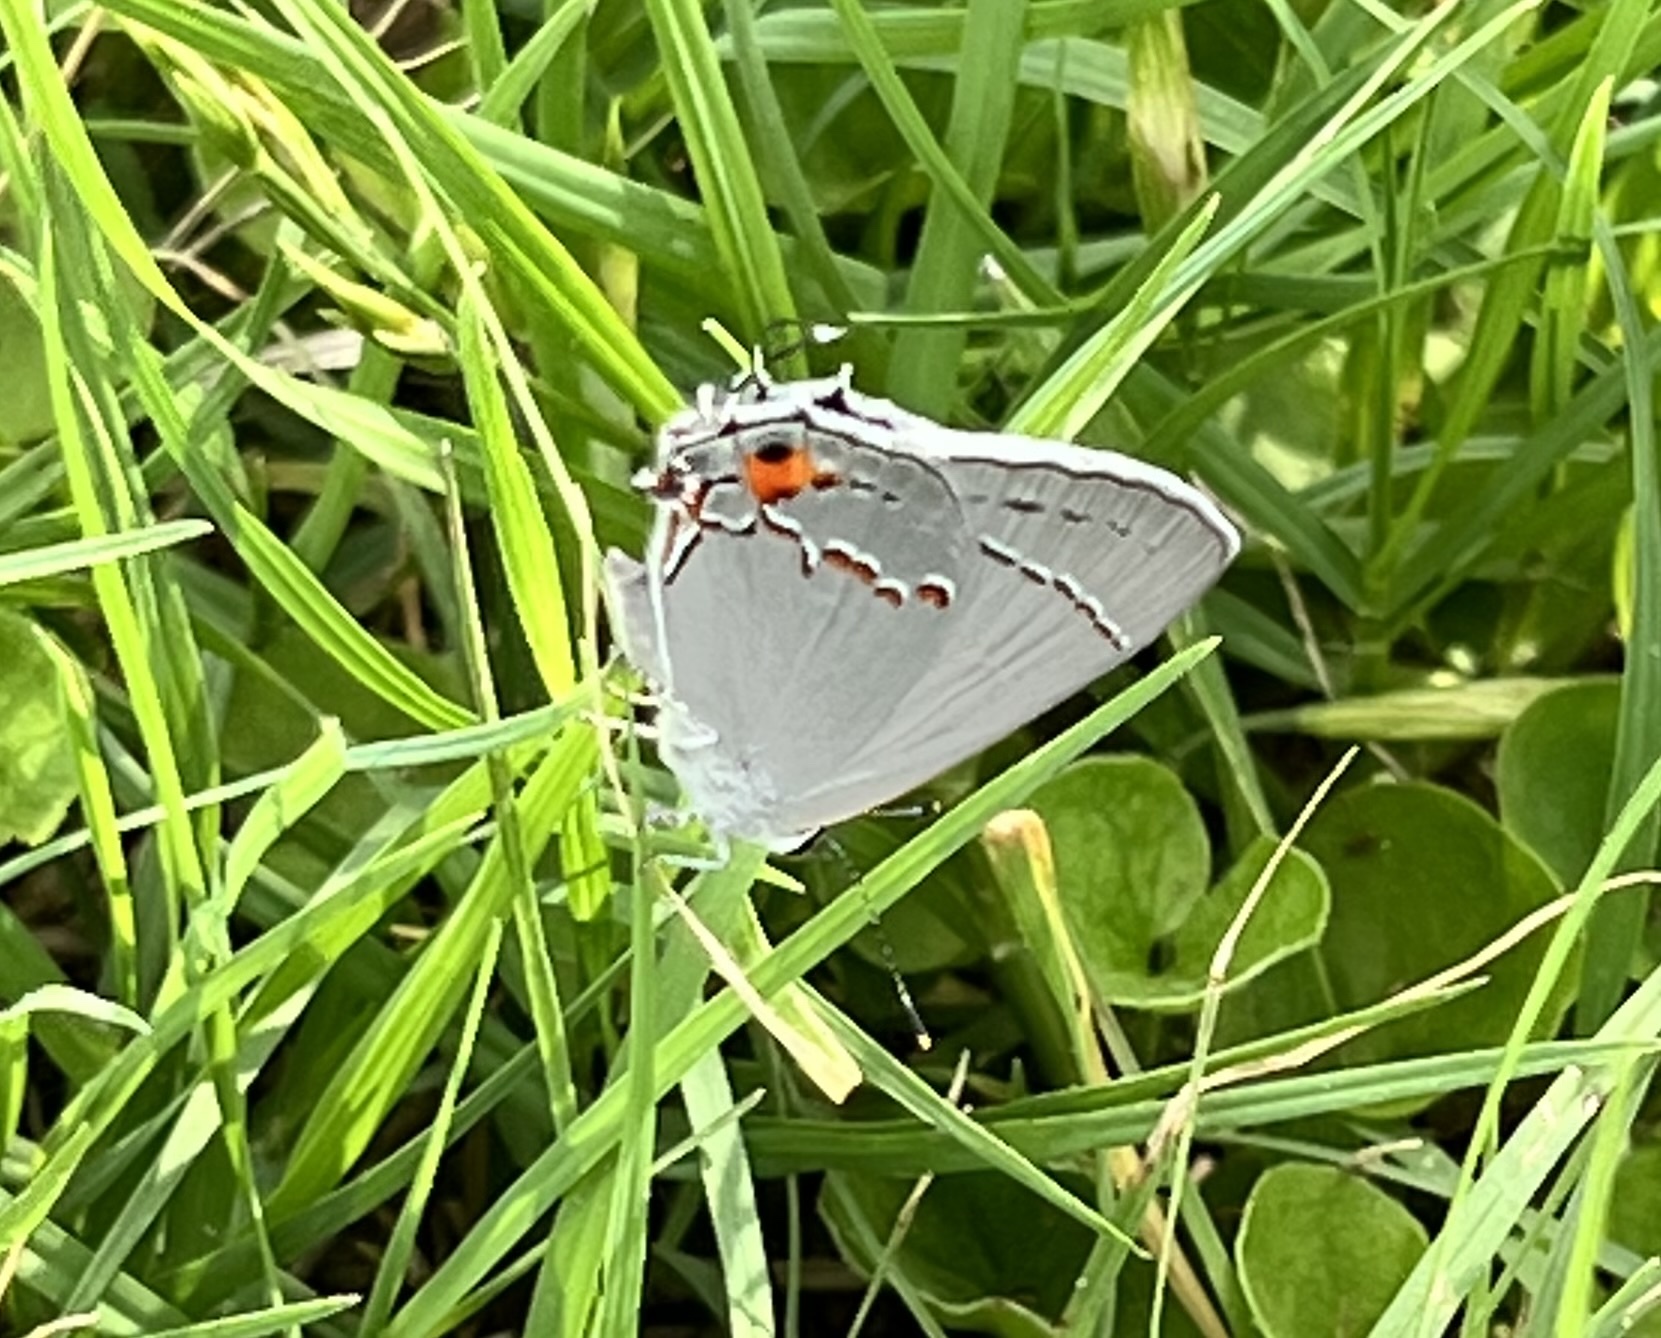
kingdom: Animalia
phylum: Arthropoda
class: Insecta
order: Lepidoptera
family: Lycaenidae
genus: Strymon
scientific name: Strymon melinus
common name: Gray hairstreak
